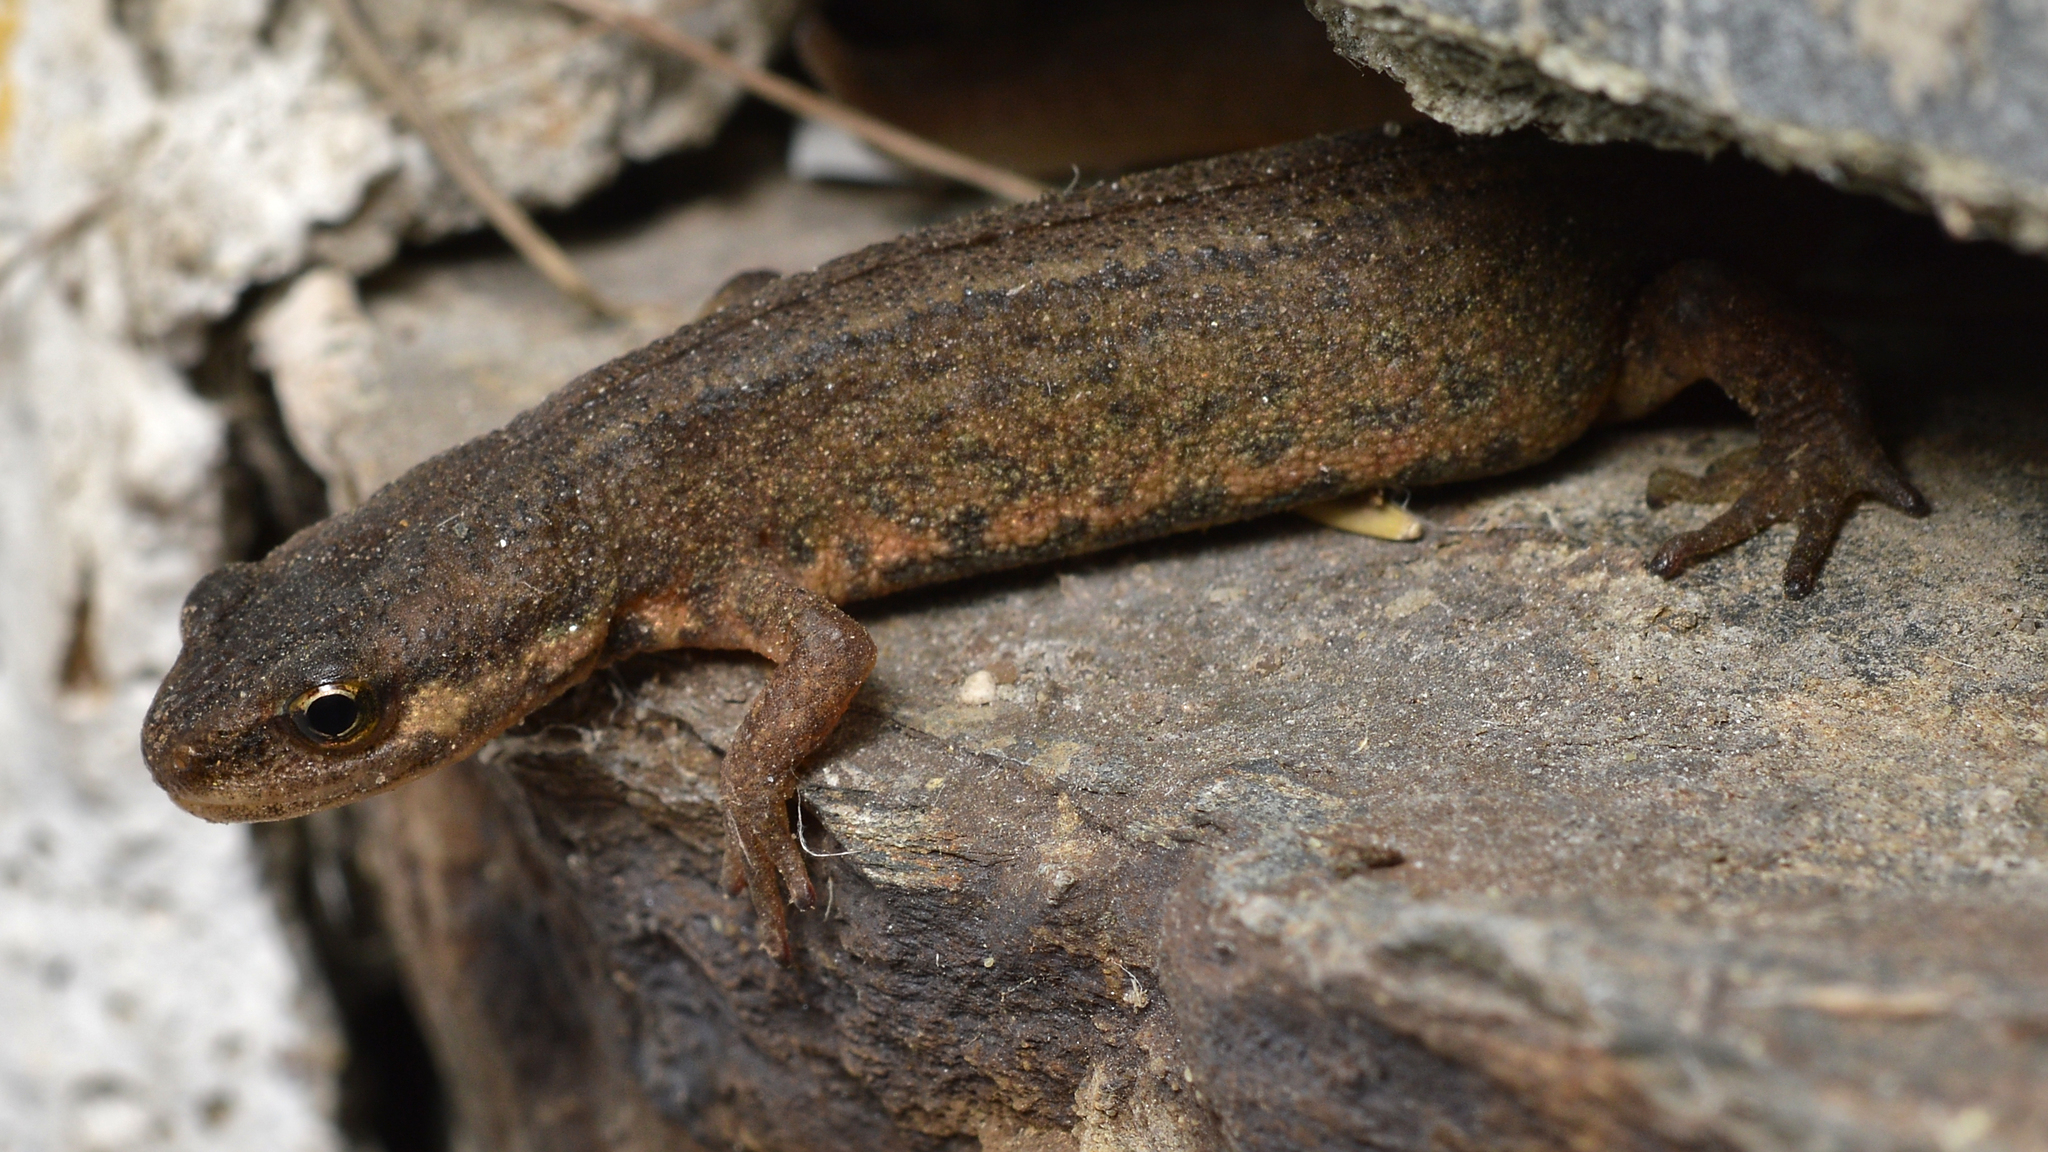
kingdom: Animalia
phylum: Chordata
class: Amphibia
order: Caudata
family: Salamandridae
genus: Lissotriton
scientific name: Lissotriton vulgaris
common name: Smooth newt
